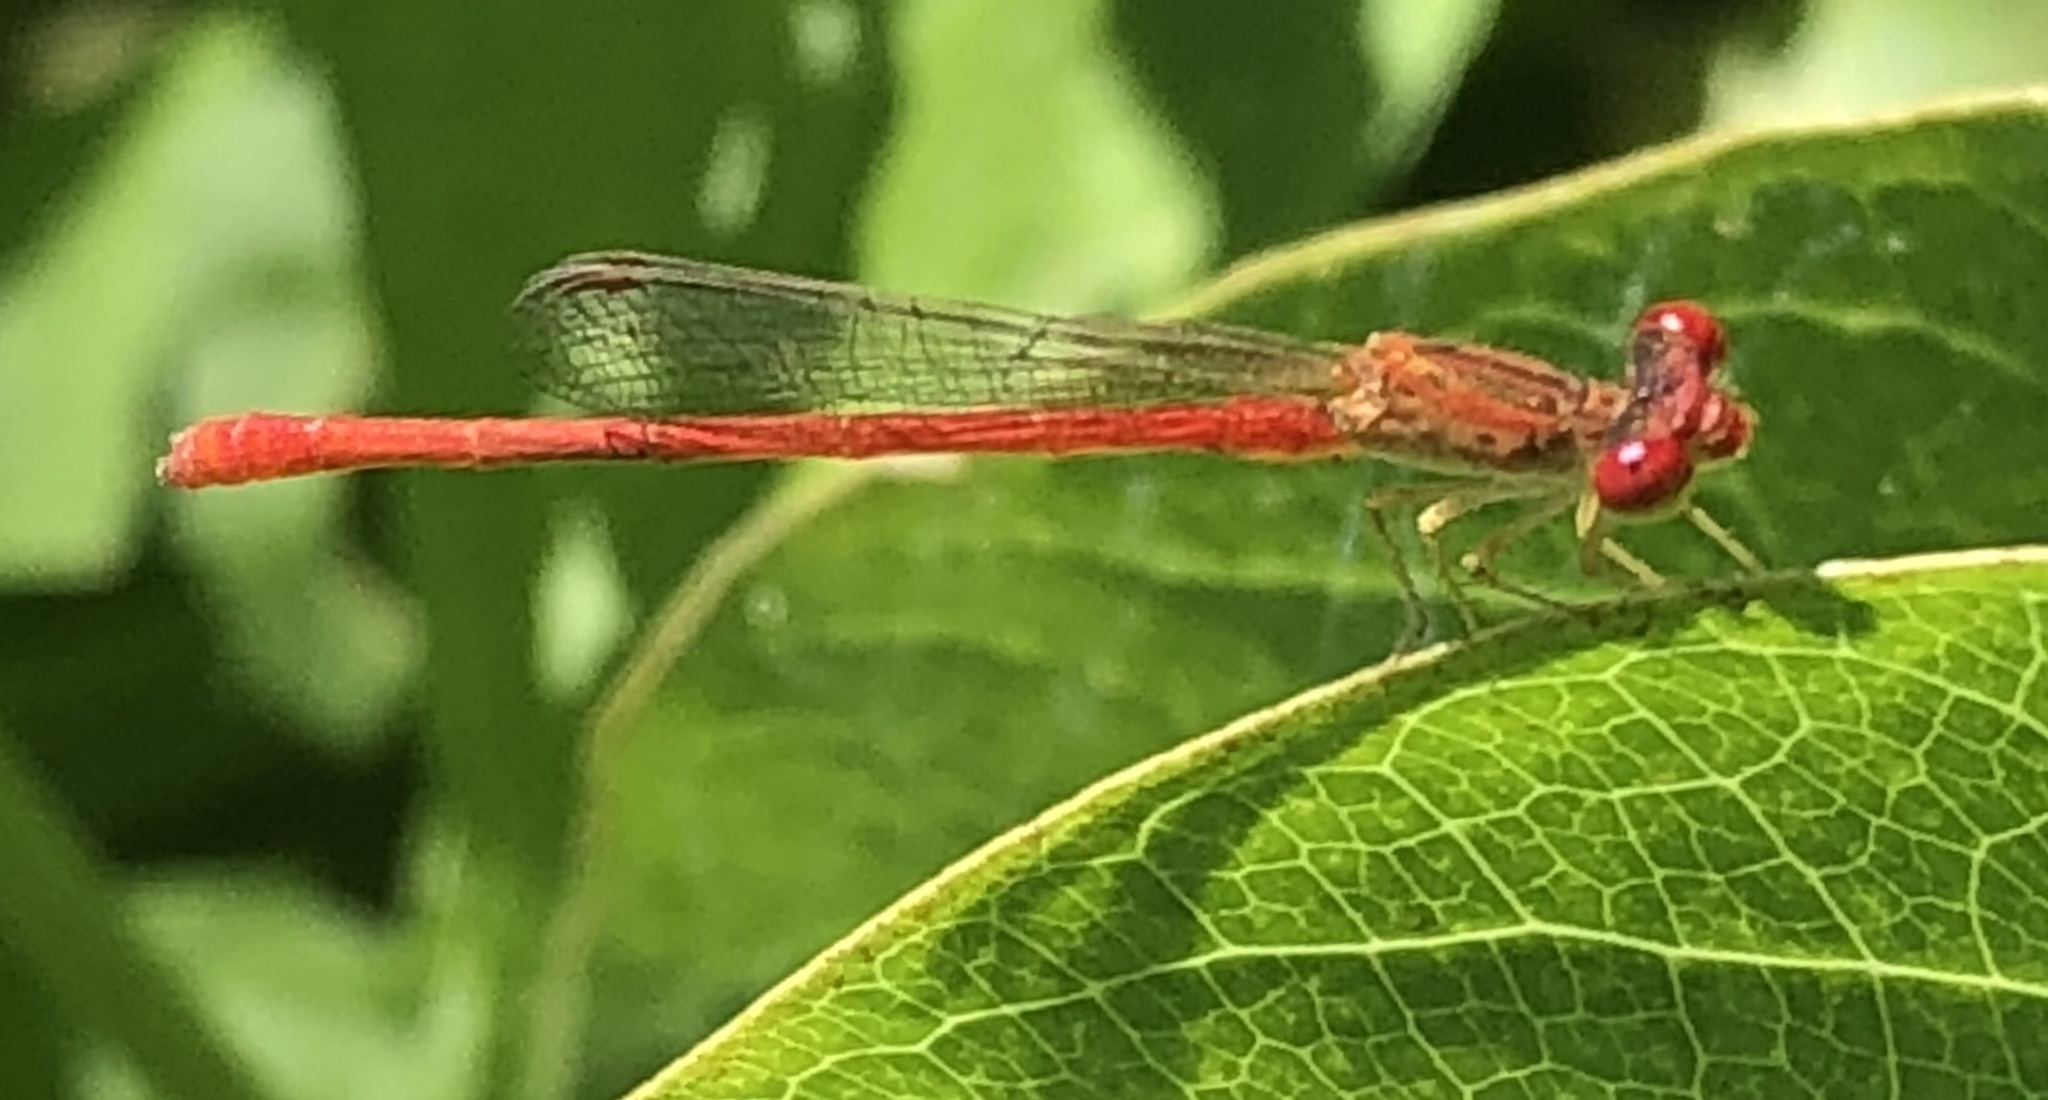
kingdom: Animalia
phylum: Arthropoda
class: Insecta
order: Odonata
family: Coenagrionidae
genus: Telebasis
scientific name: Telebasis salva
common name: Desert firetail
